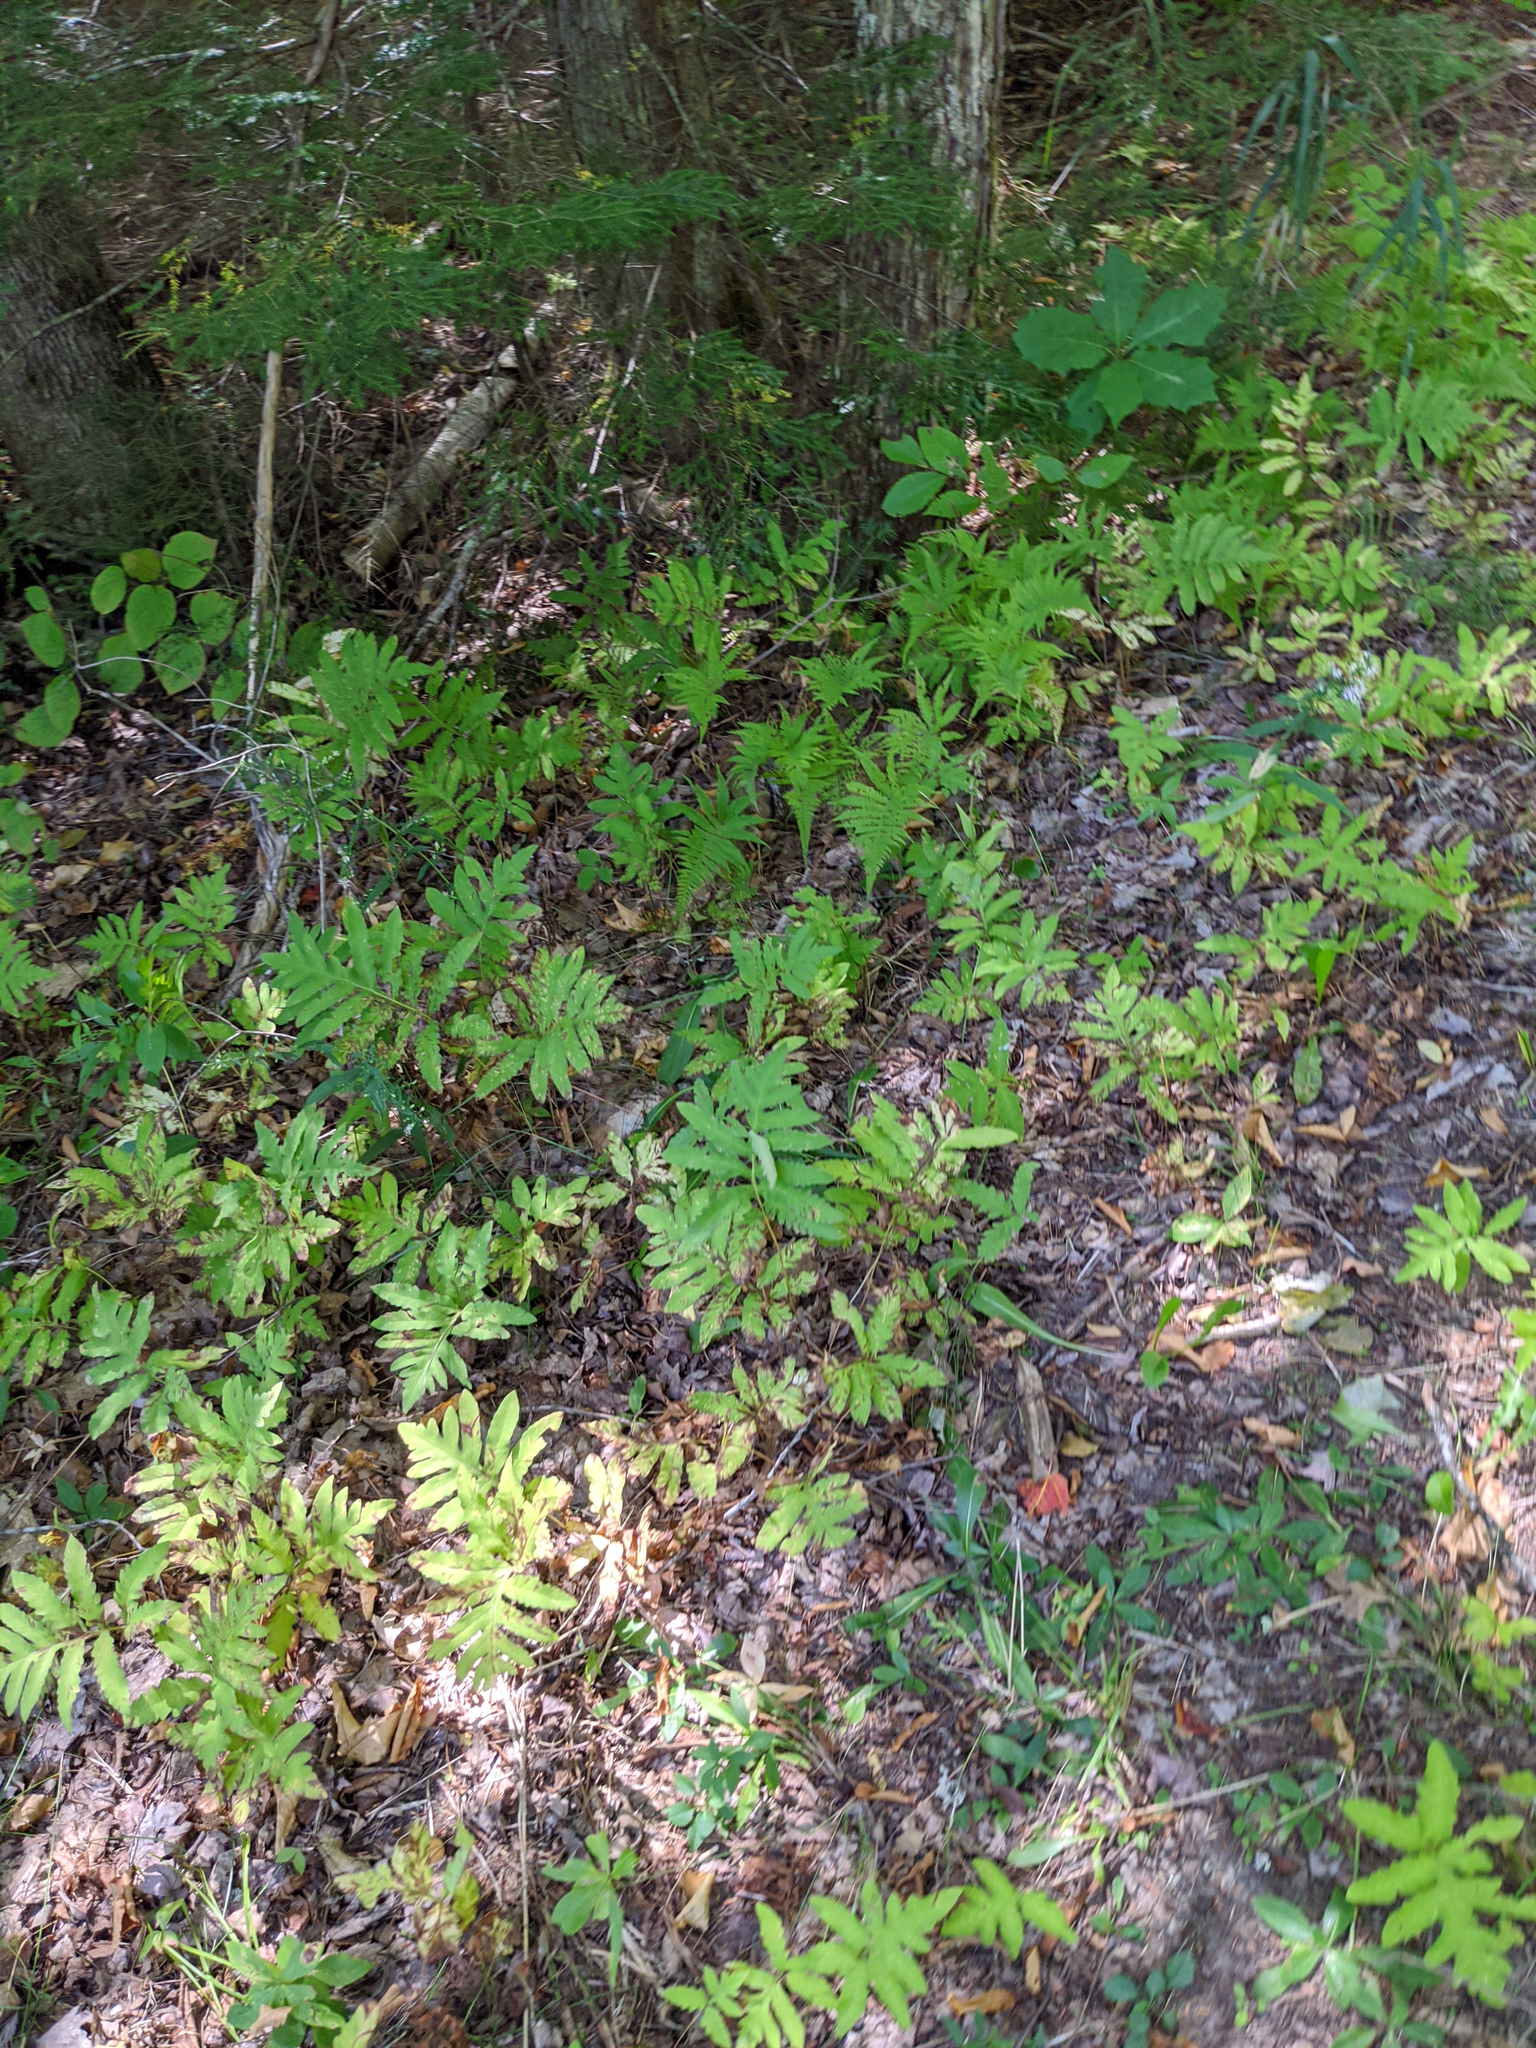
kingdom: Plantae
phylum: Tracheophyta
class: Polypodiopsida
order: Polypodiales
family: Onocleaceae
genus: Onoclea
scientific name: Onoclea sensibilis
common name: Sensitive fern
